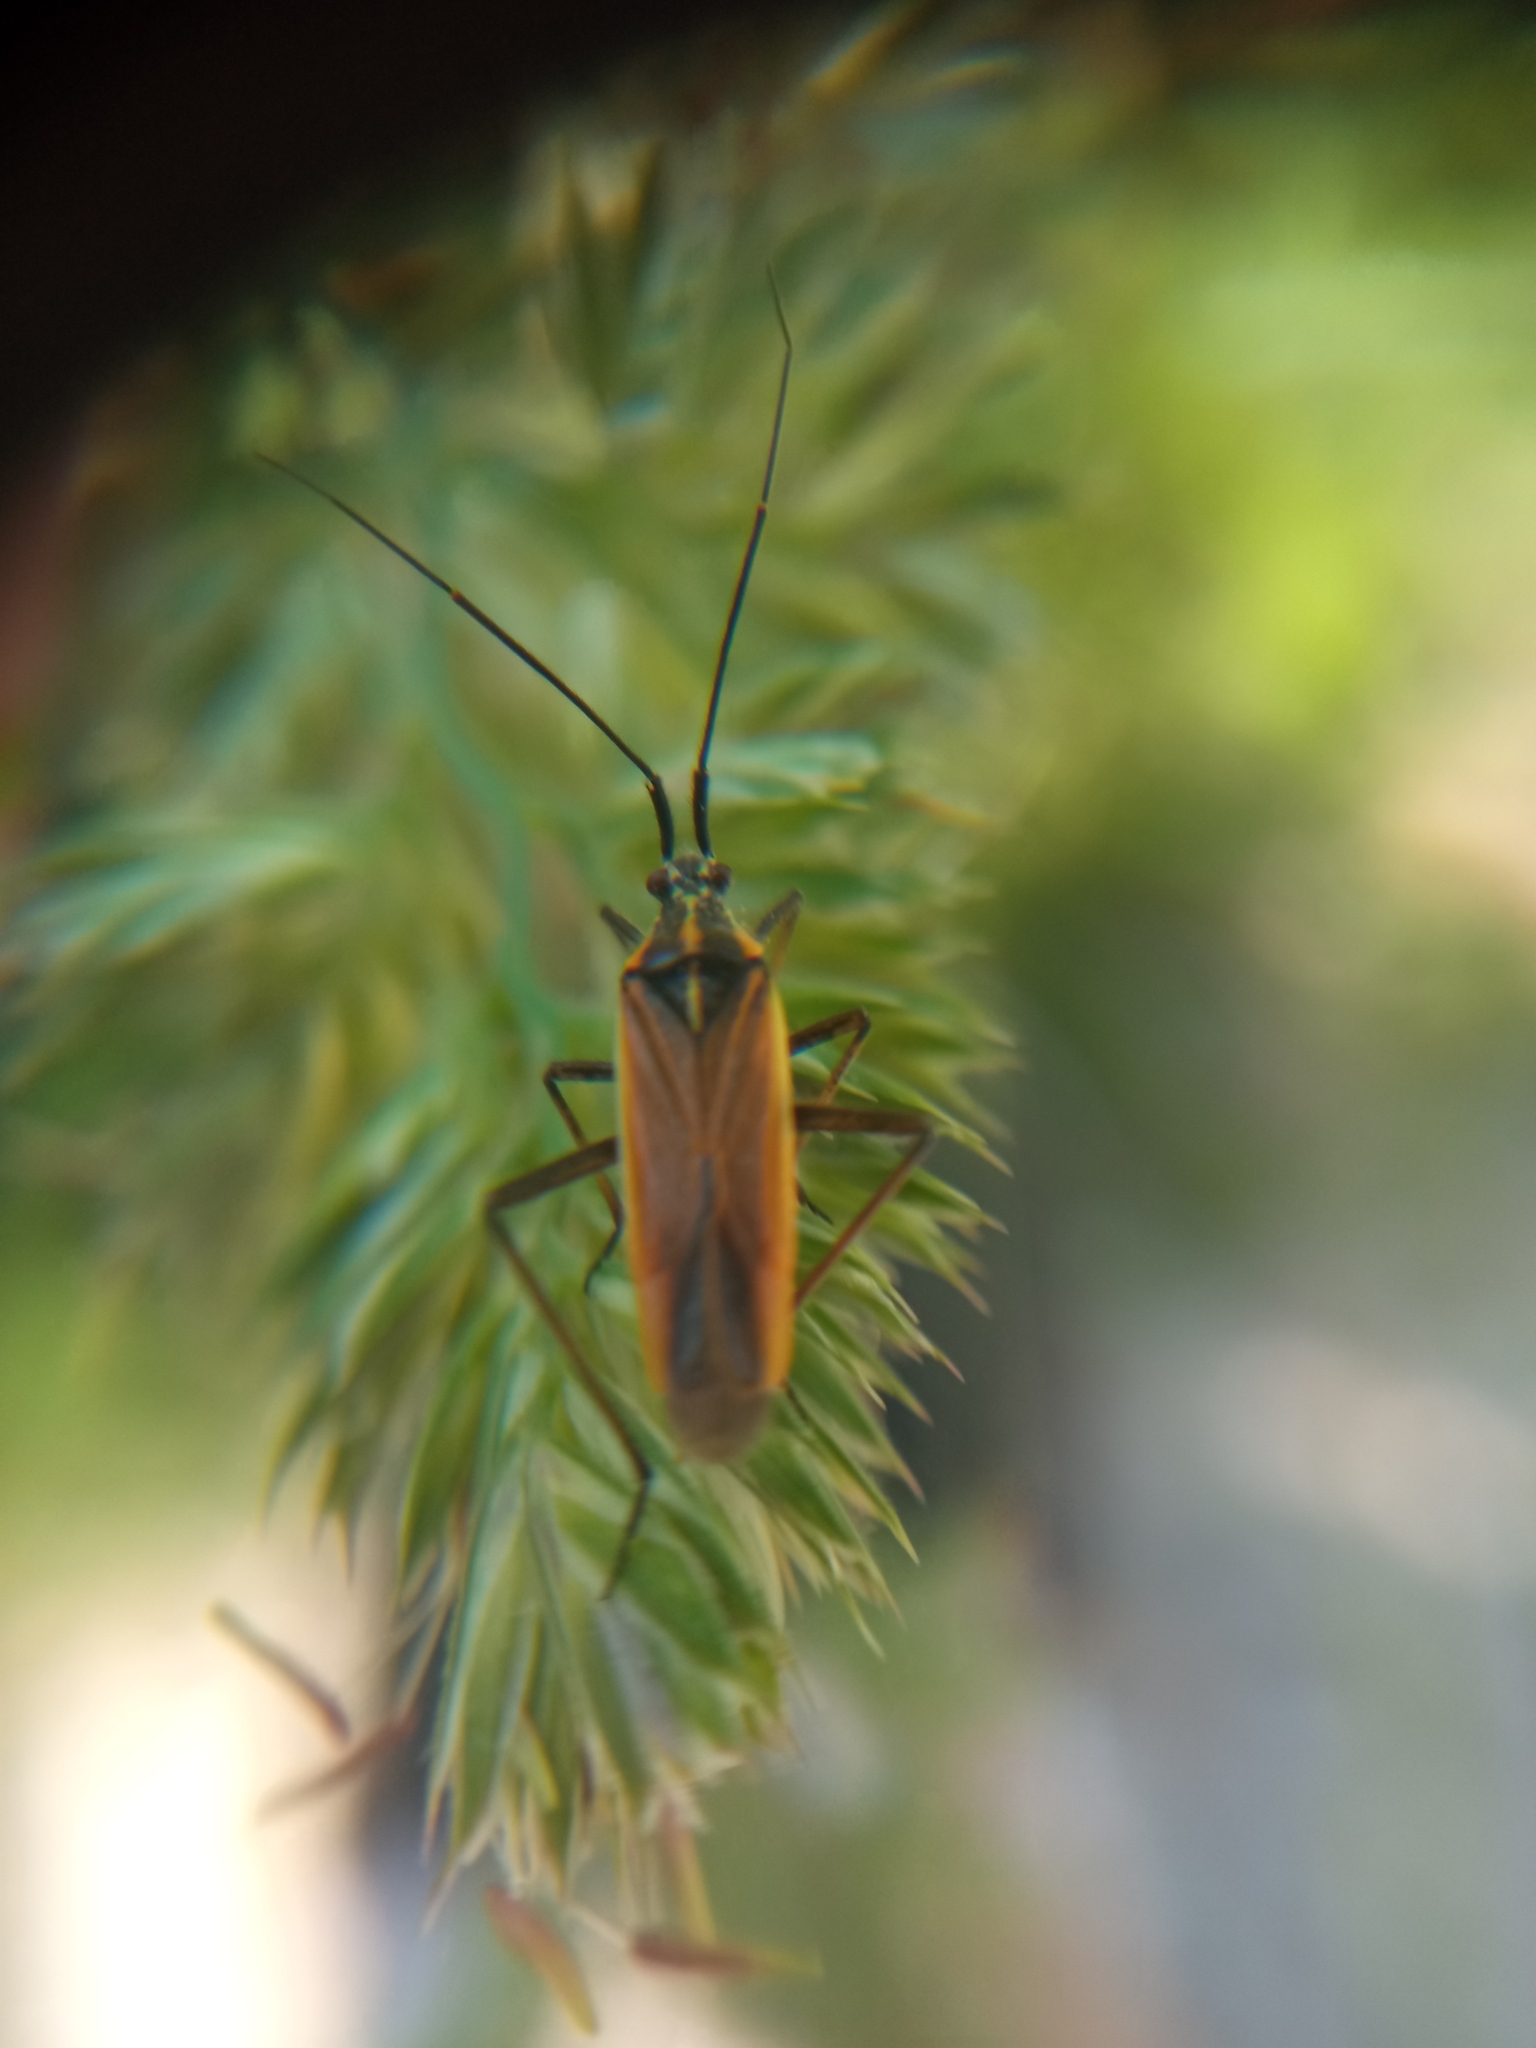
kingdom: Animalia
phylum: Arthropoda
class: Insecta
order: Hemiptera
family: Miridae
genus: Leptopterna
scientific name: Leptopterna dolabrata
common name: Meadow plant bug
